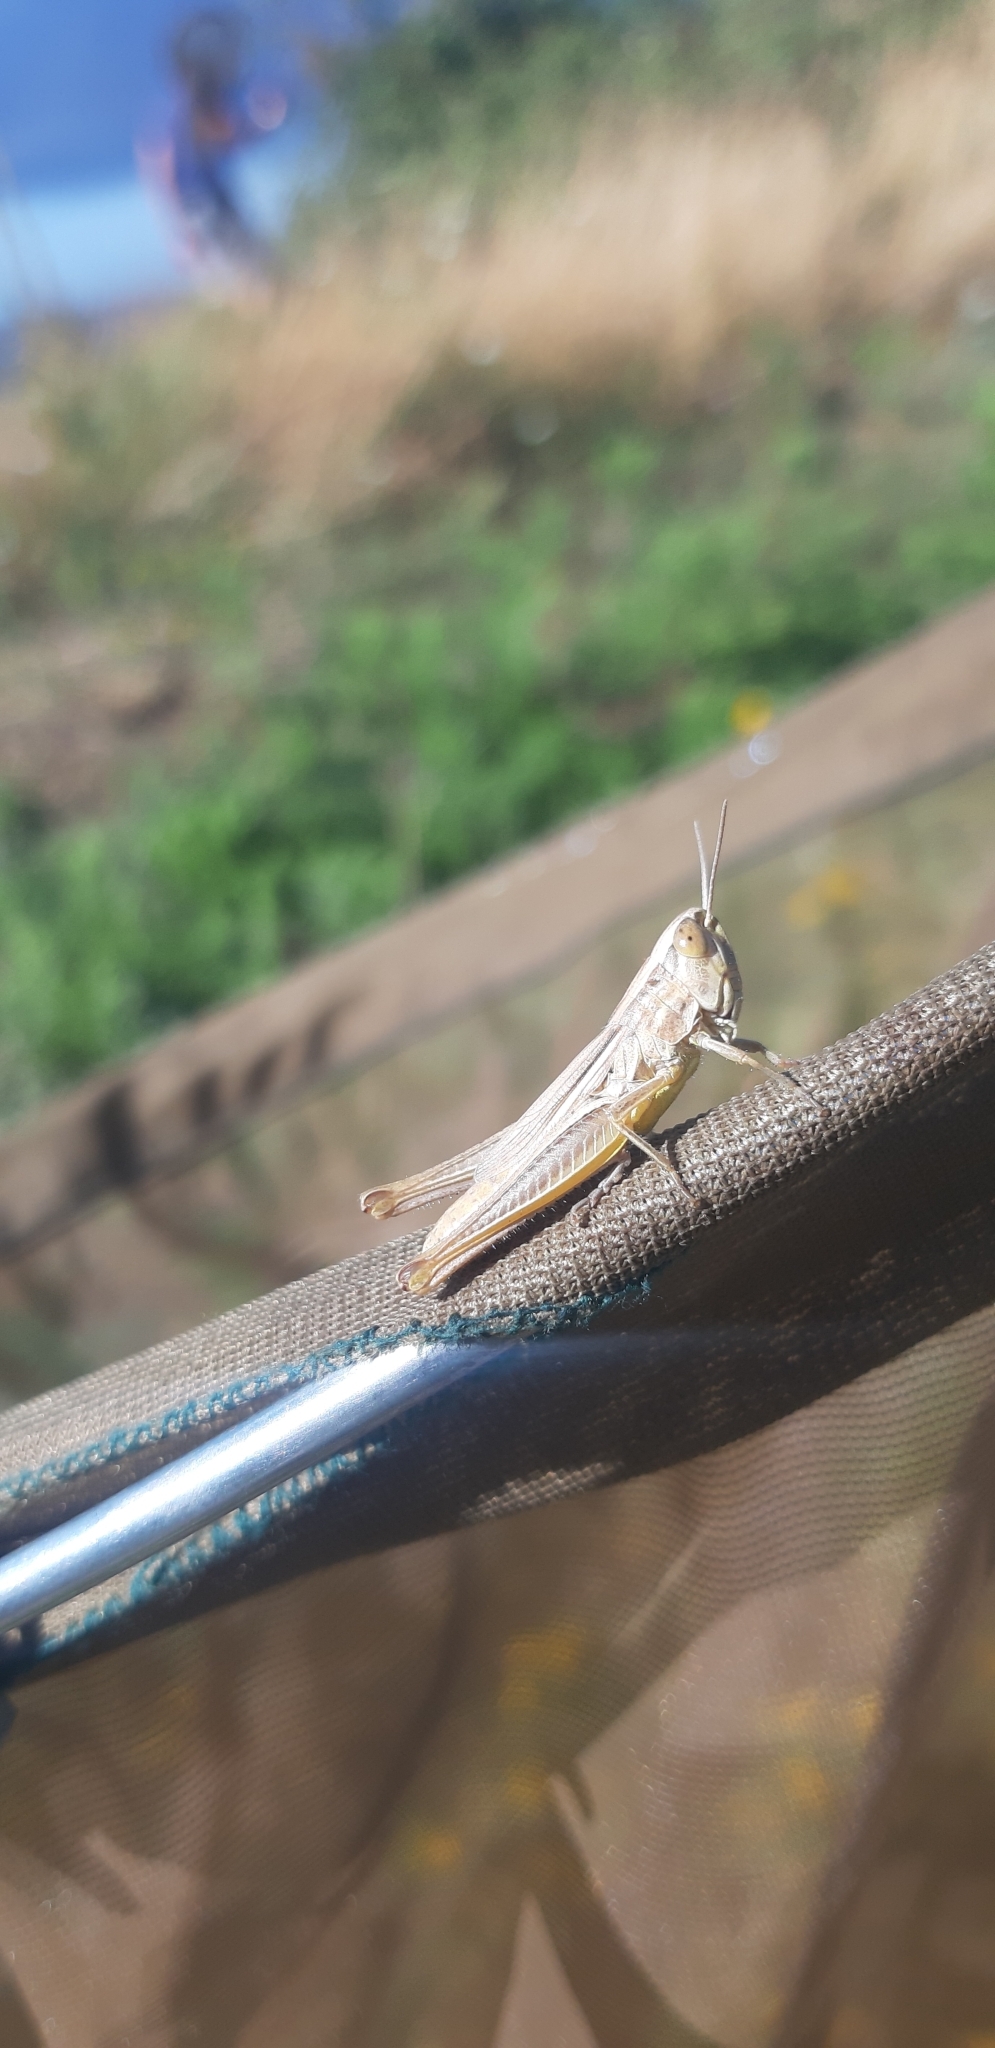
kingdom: Animalia
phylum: Arthropoda
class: Insecta
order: Orthoptera
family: Acrididae
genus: Euchorthippus
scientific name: Euchorthippus declivus
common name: Common straw grasshopper
